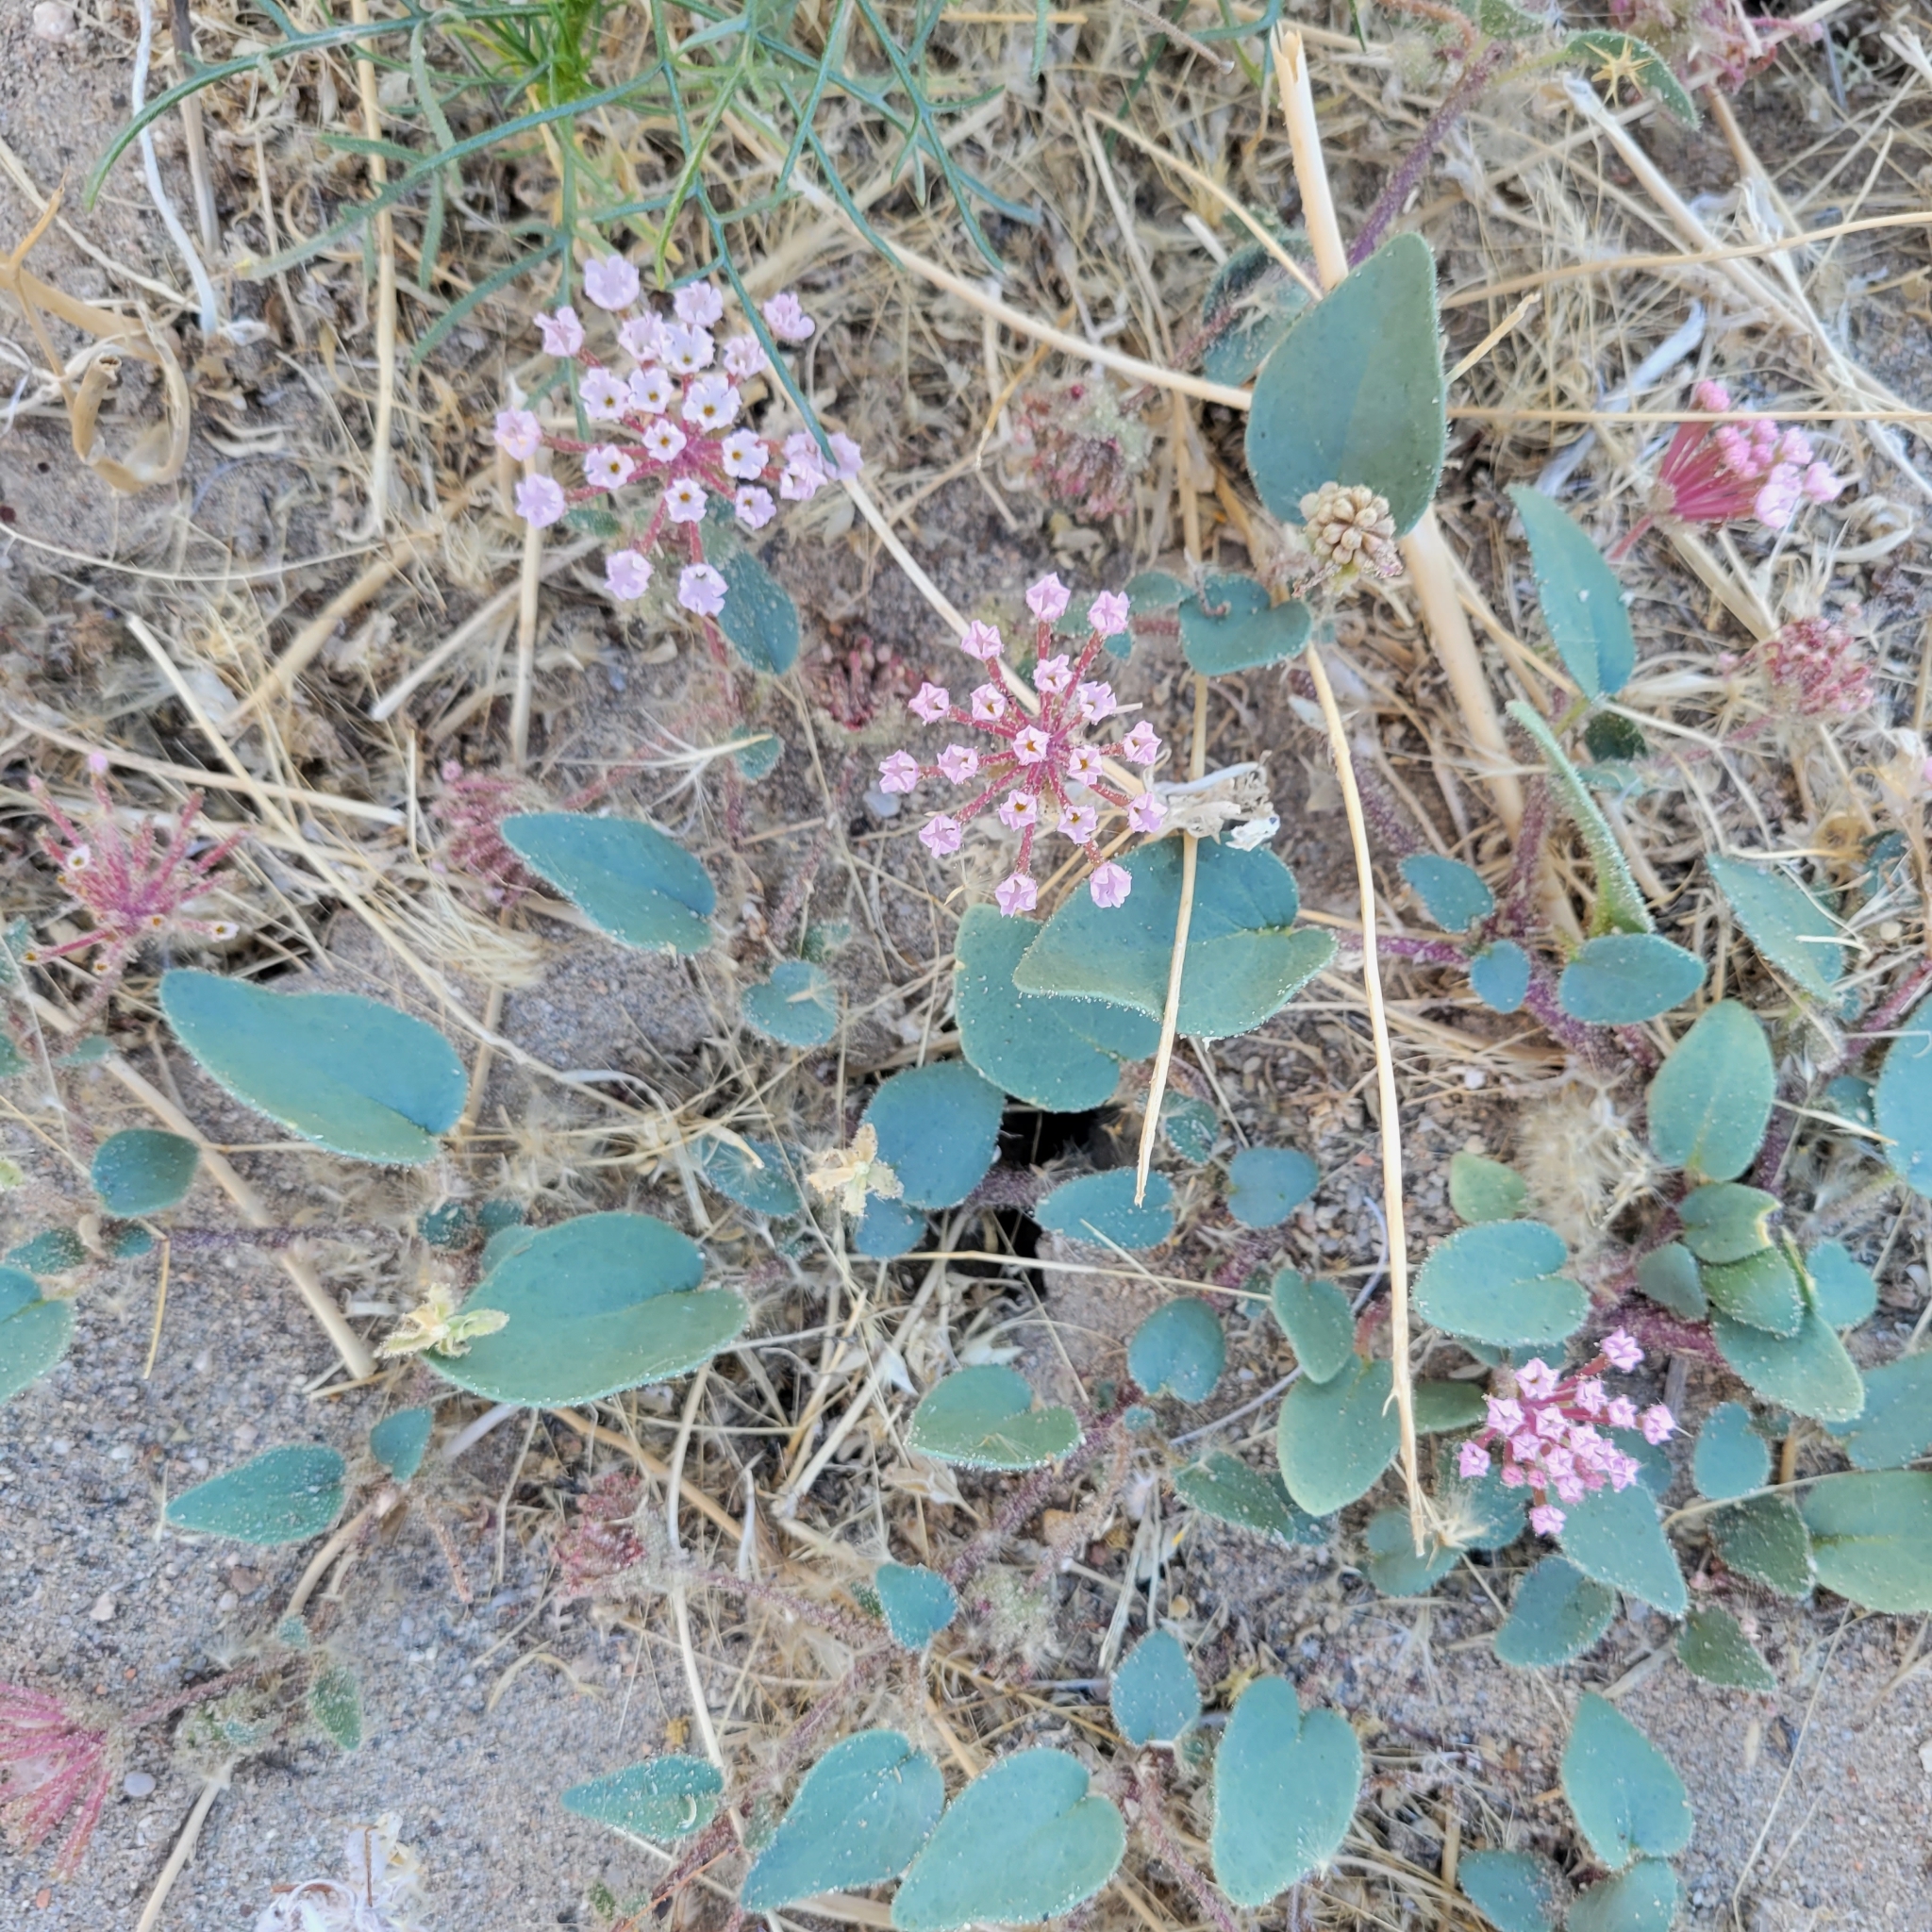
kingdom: Plantae
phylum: Tracheophyta
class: Magnoliopsida
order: Caryophyllales
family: Nyctaginaceae
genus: Abronia
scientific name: Abronia pogonantha
